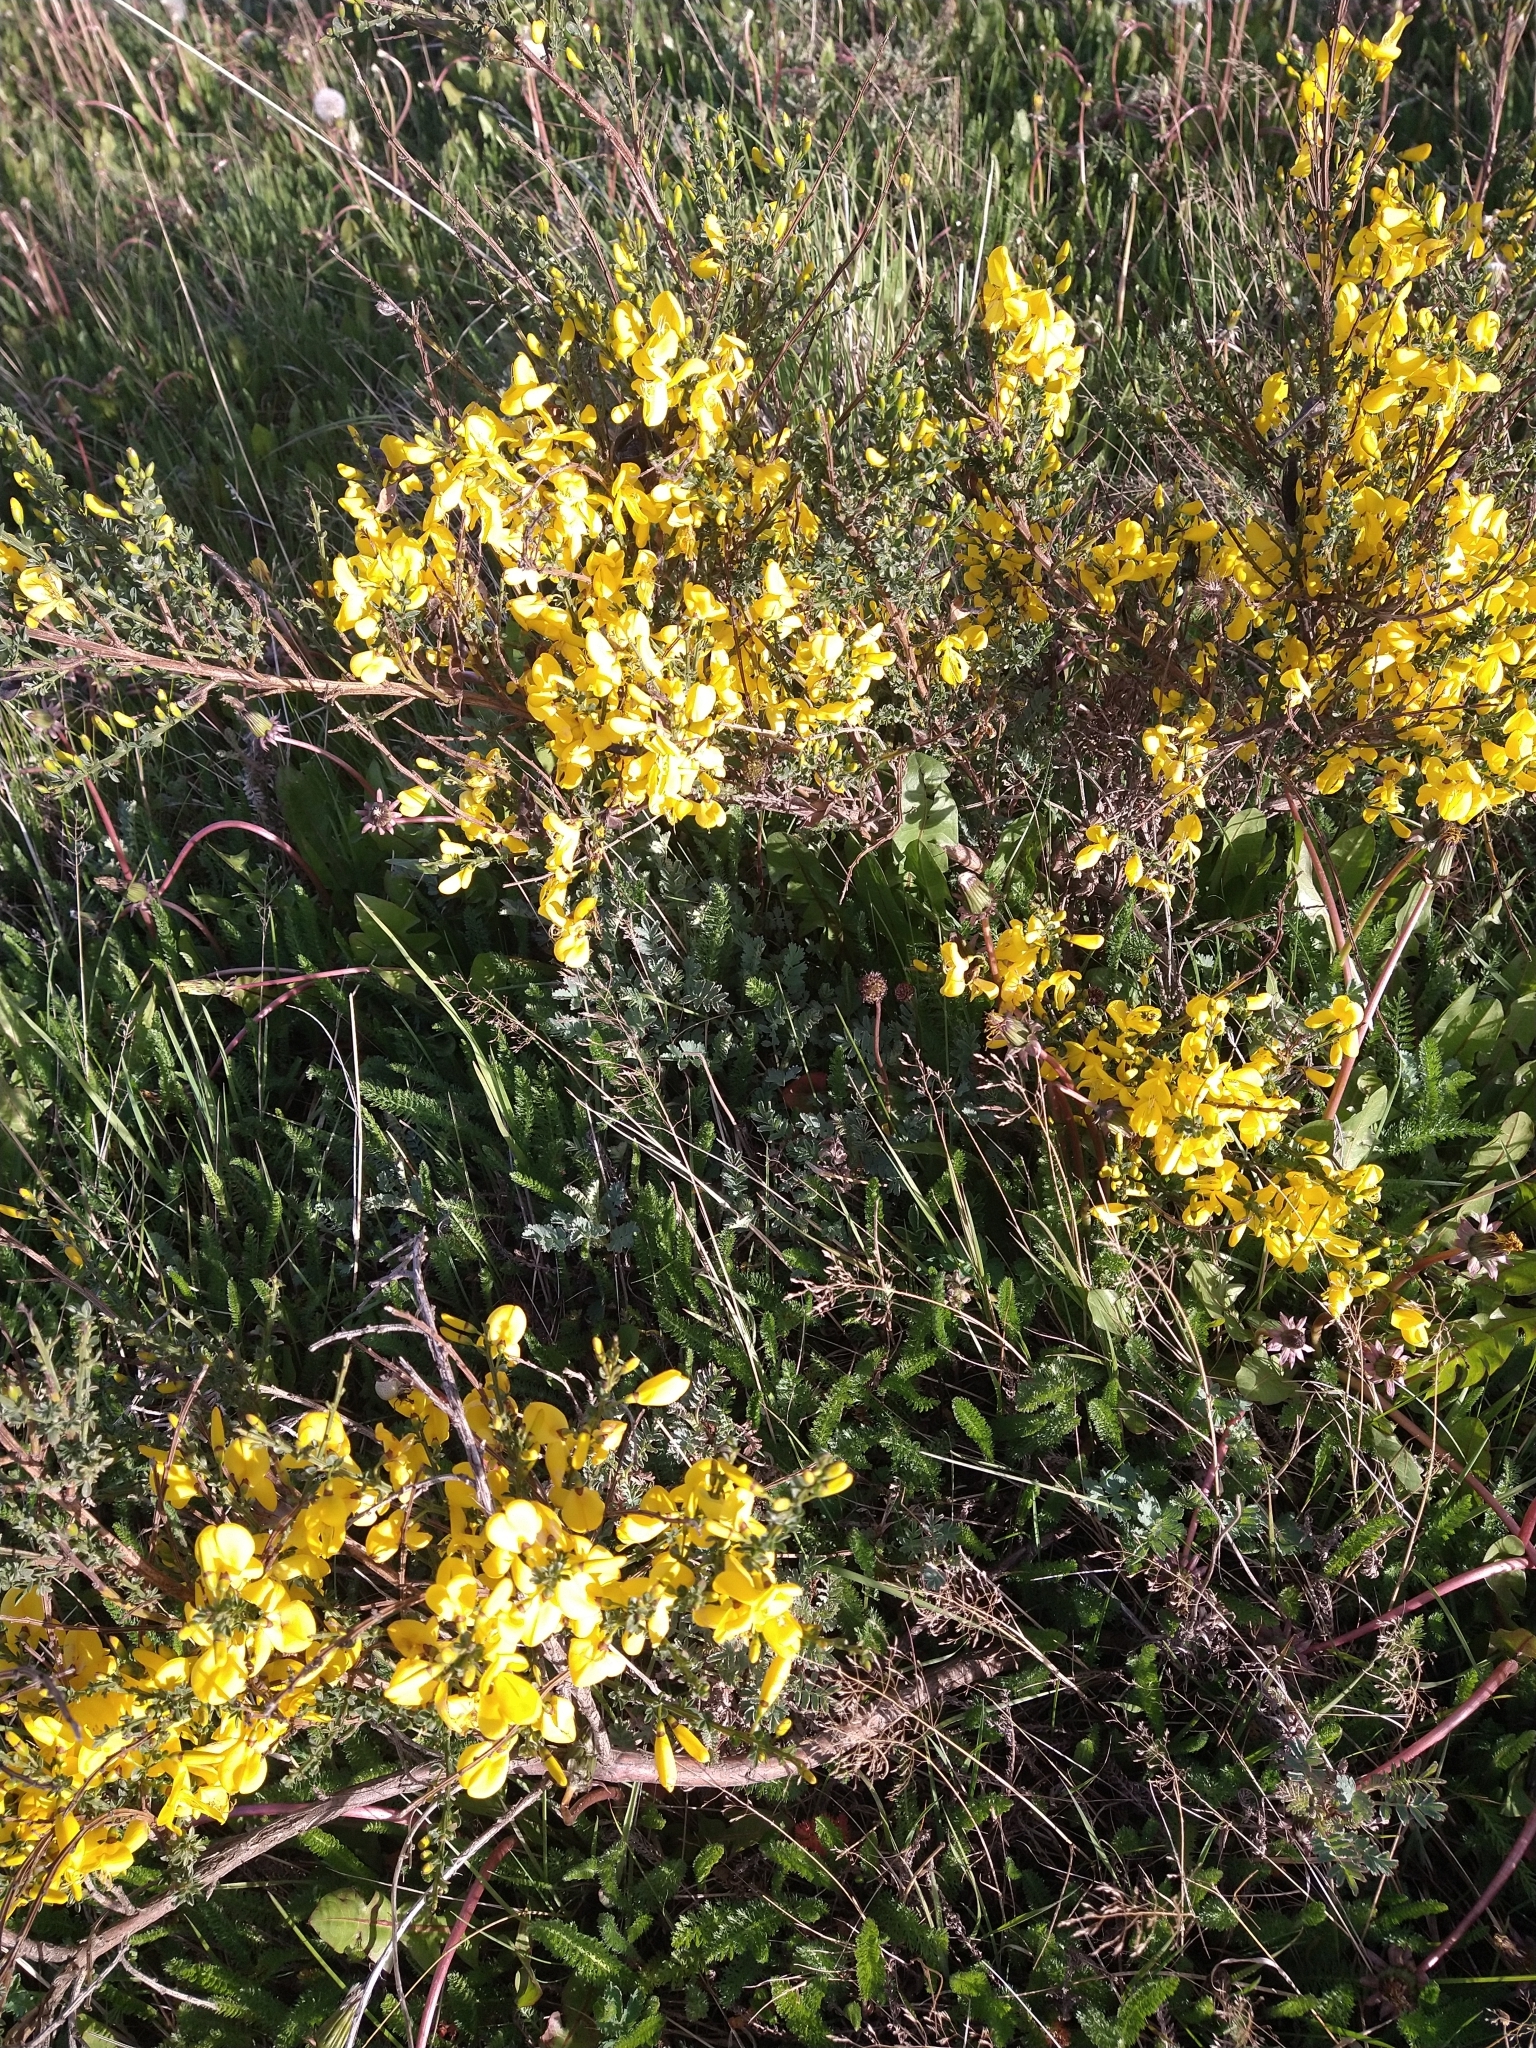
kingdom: Plantae
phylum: Tracheophyta
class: Magnoliopsida
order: Fabales
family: Fabaceae
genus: Cytisus
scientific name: Cytisus scoparius
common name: Scotch broom
